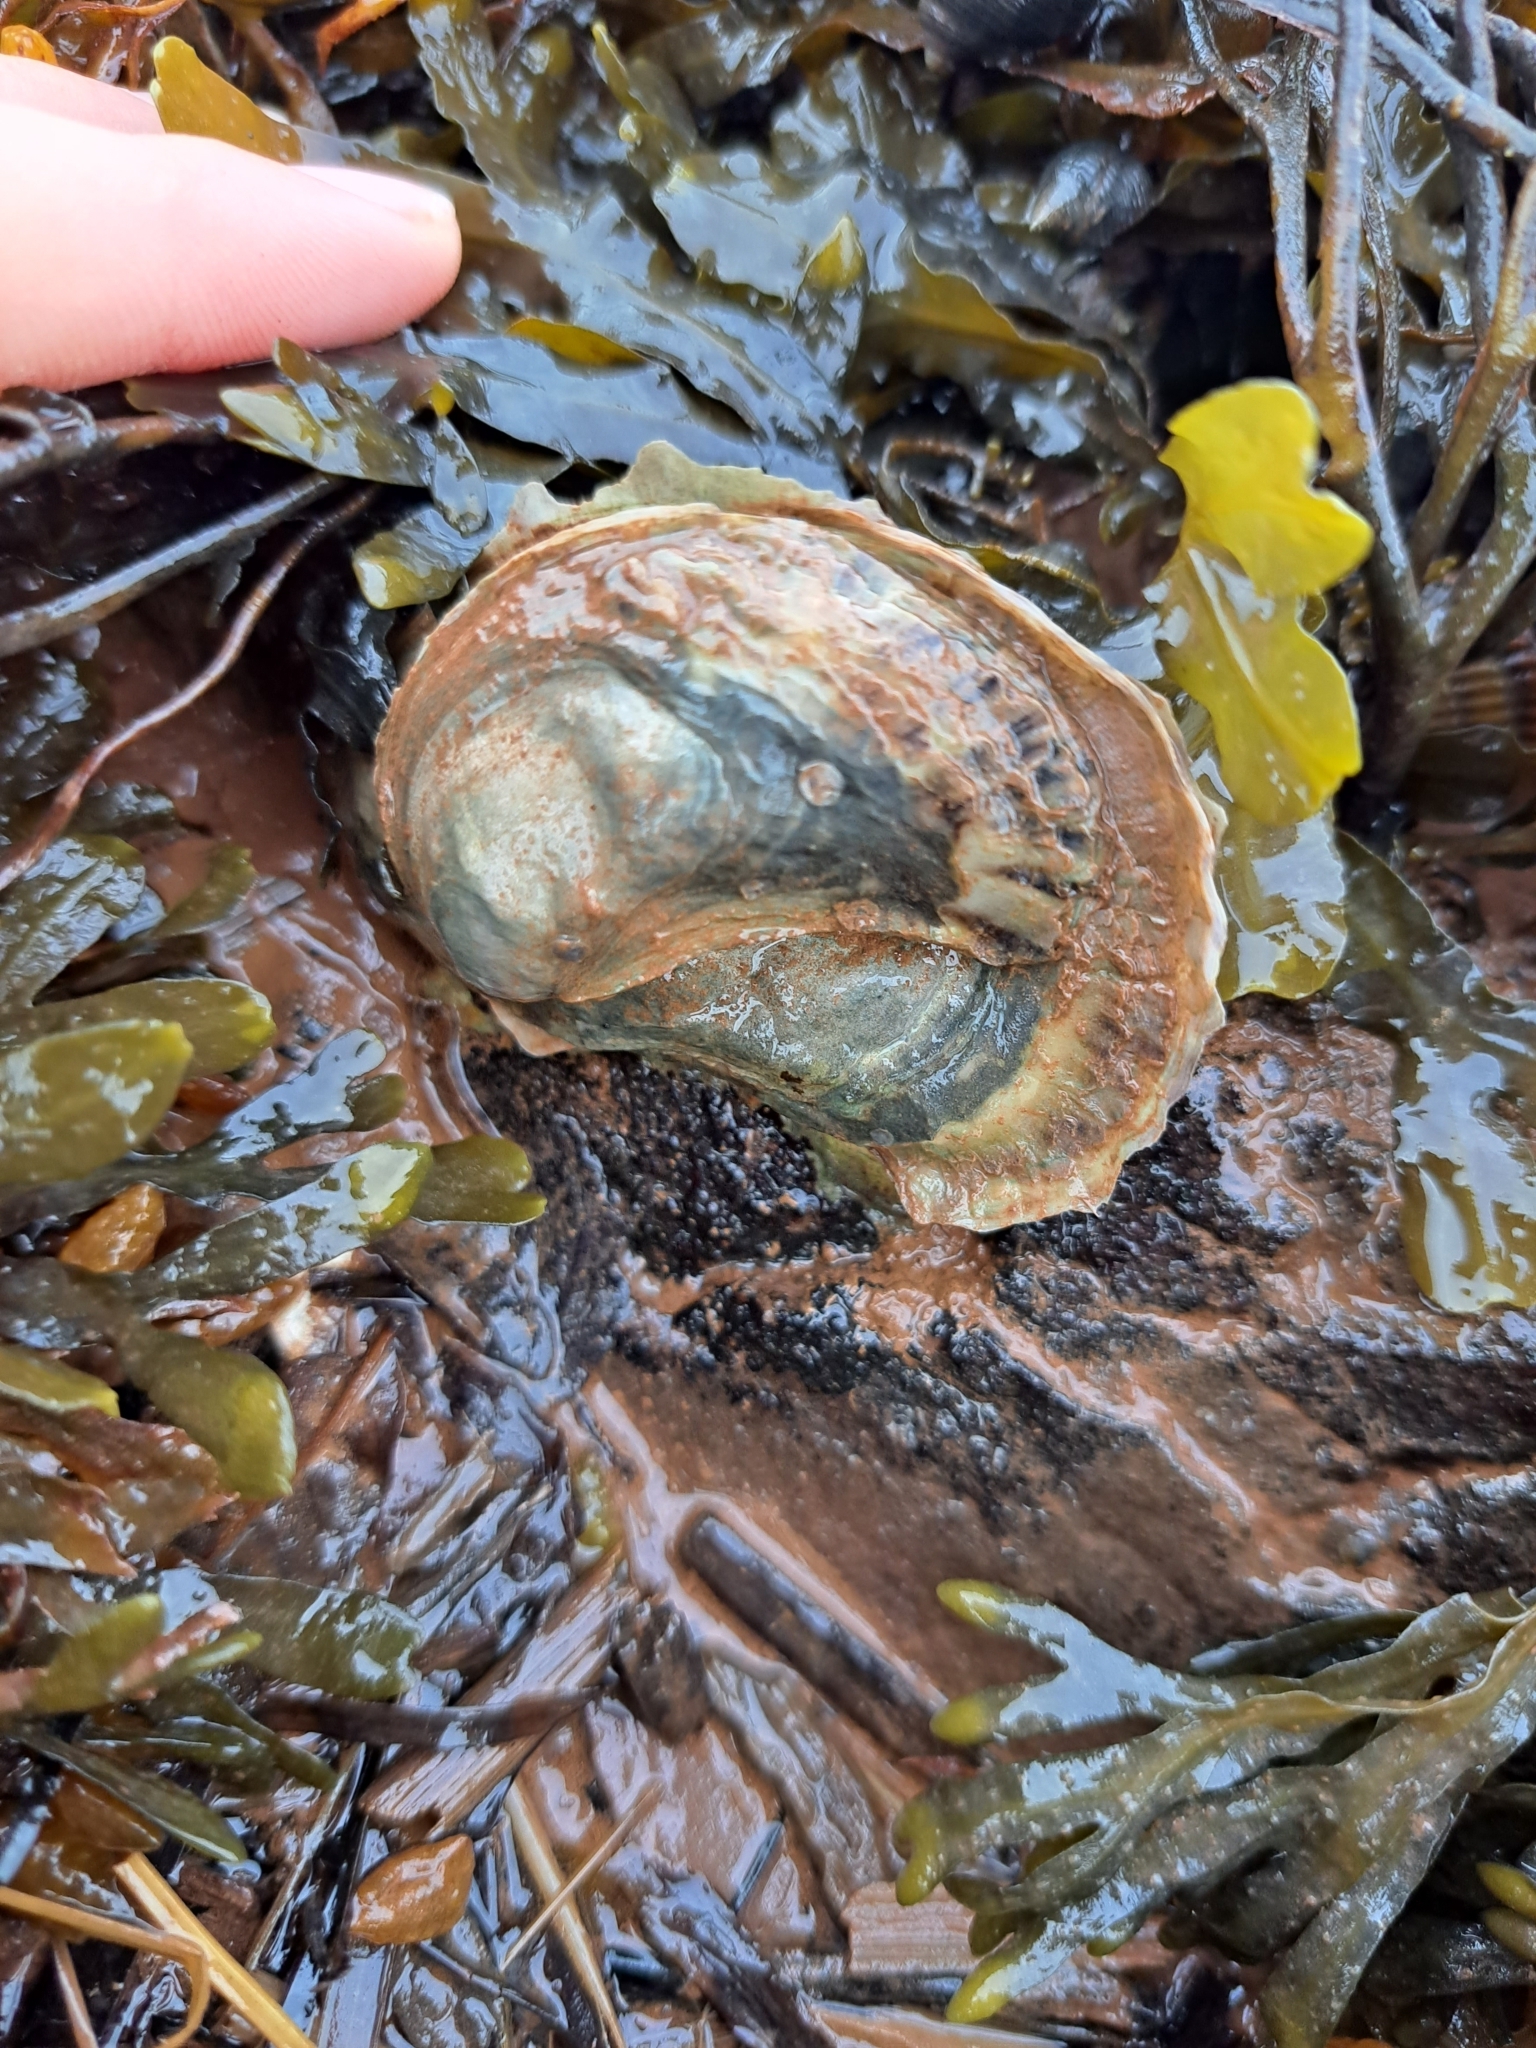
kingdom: Animalia
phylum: Mollusca
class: Bivalvia
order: Ostreida
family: Ostreidae
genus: Crassostrea
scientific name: Crassostrea virginica
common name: American oyster
